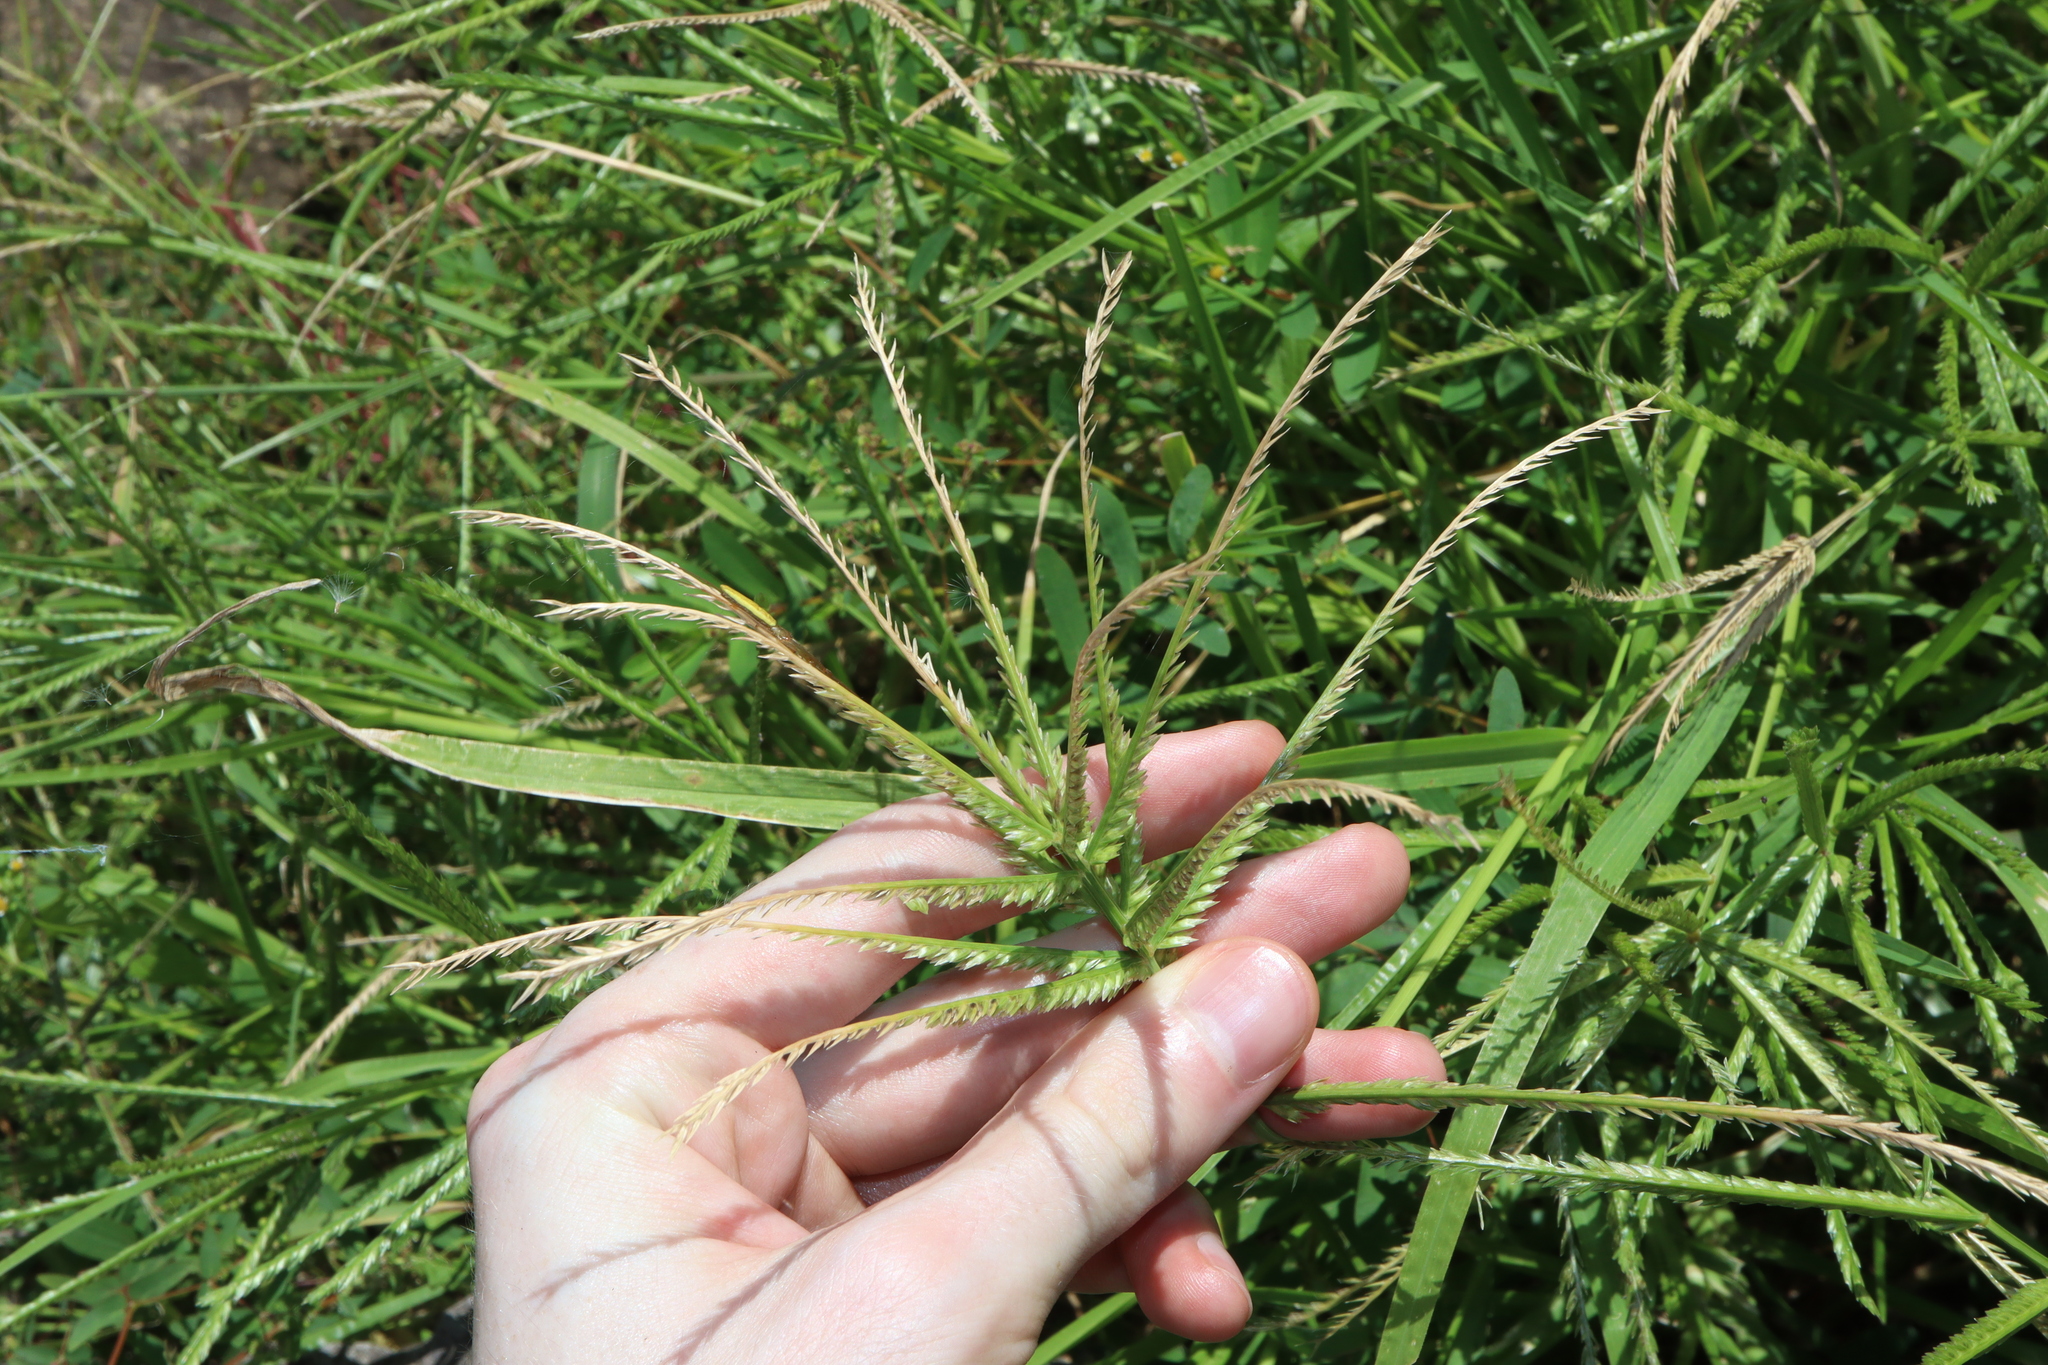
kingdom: Plantae
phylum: Tracheophyta
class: Liliopsida
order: Poales
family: Poaceae
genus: Eleusine
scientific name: Eleusine indica
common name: Yard-grass
